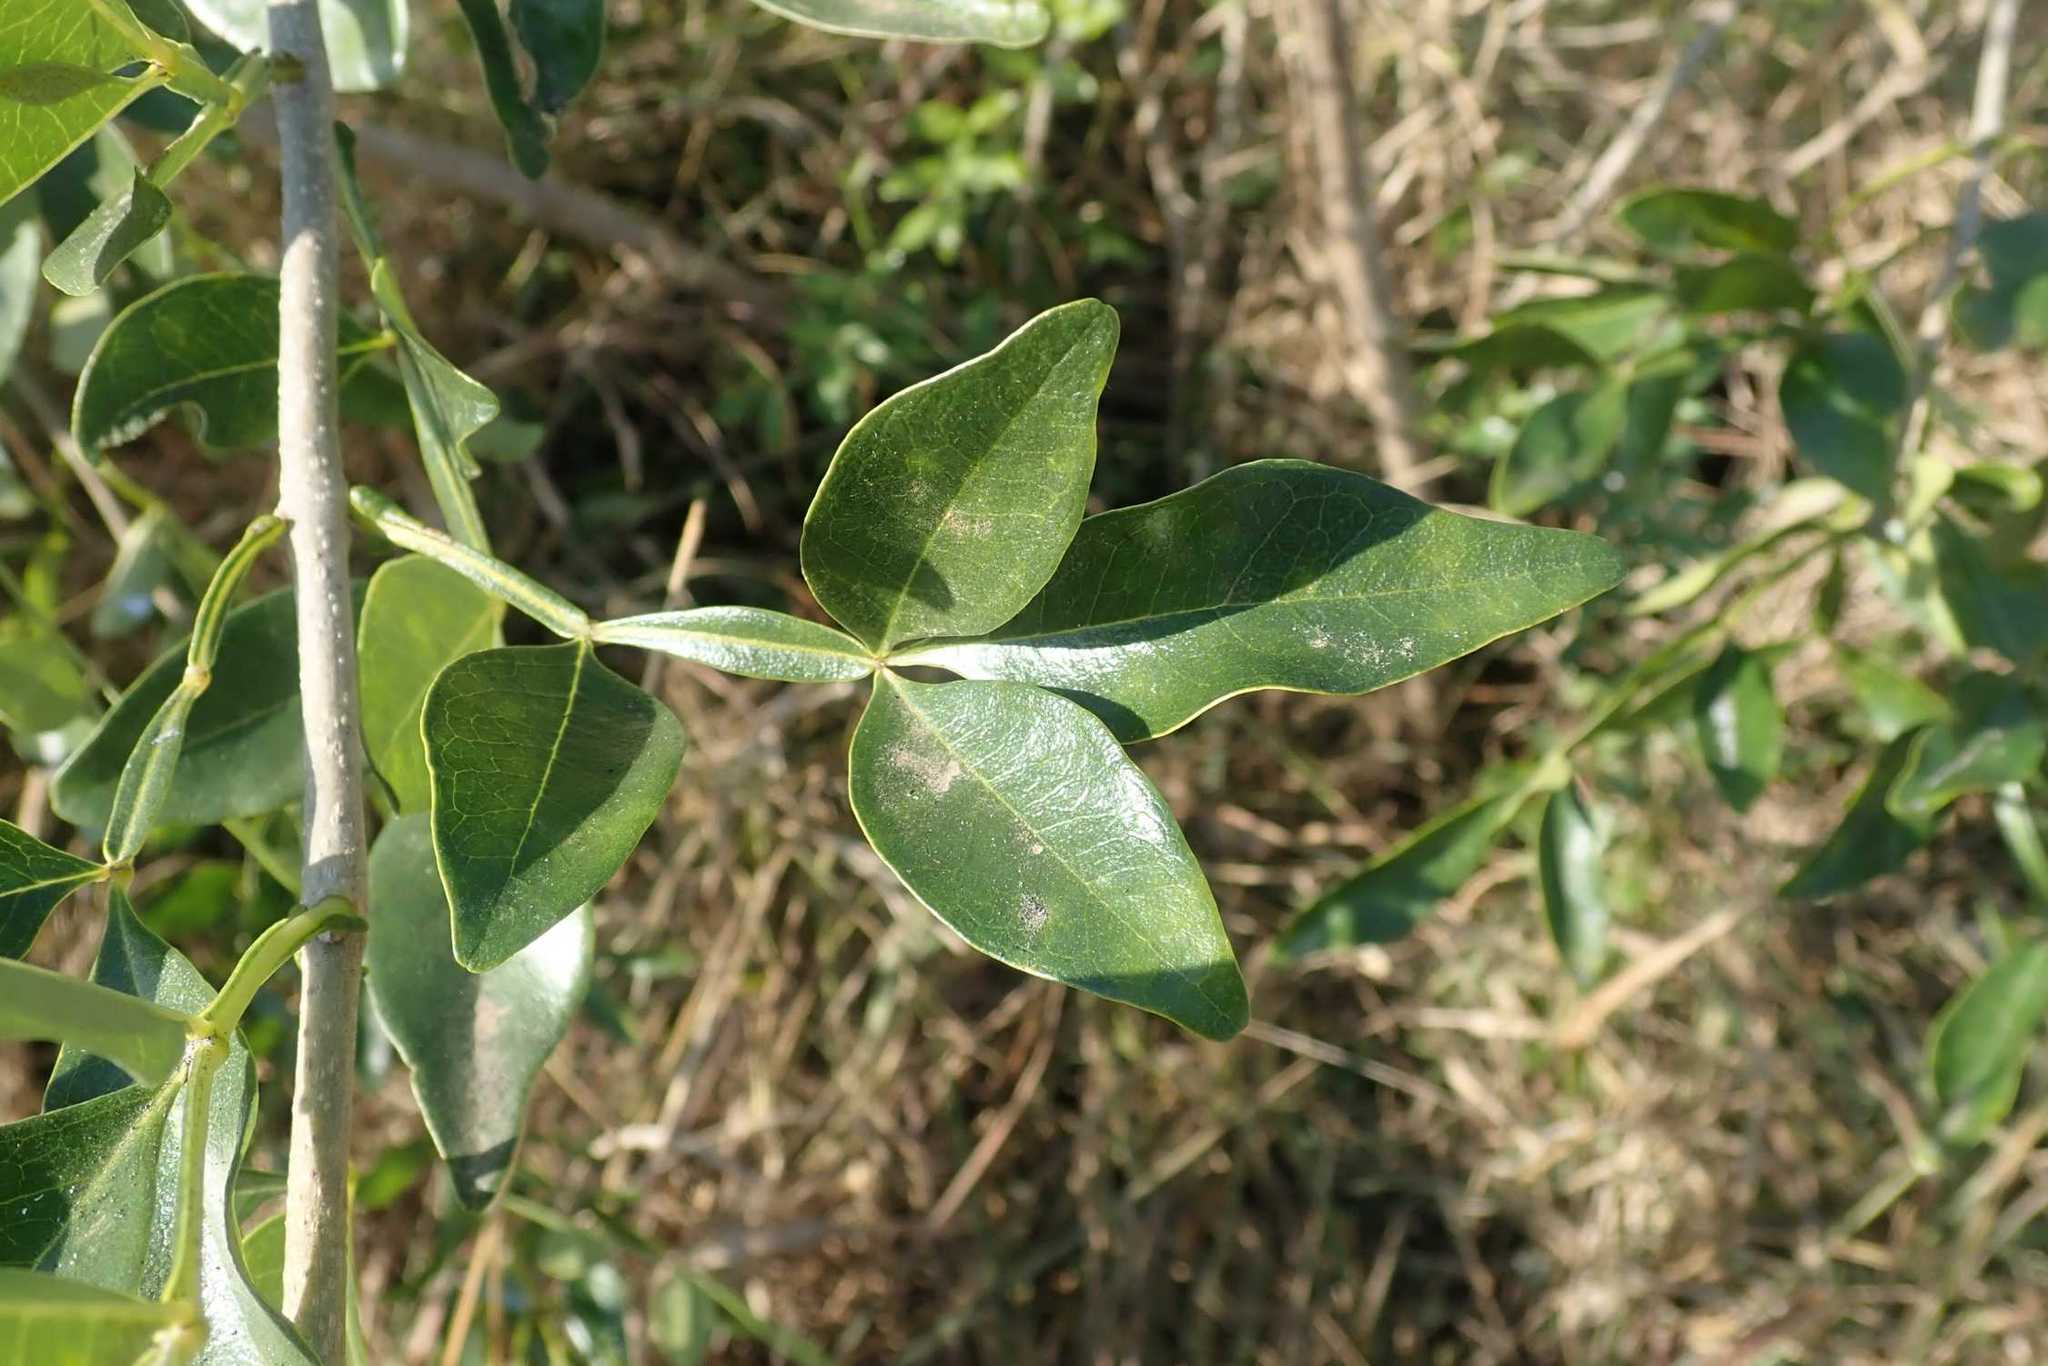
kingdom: Plantae
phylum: Tracheophyta
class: Magnoliopsida
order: Lamiales
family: Oleaceae
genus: Schrebera
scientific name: Schrebera alata
